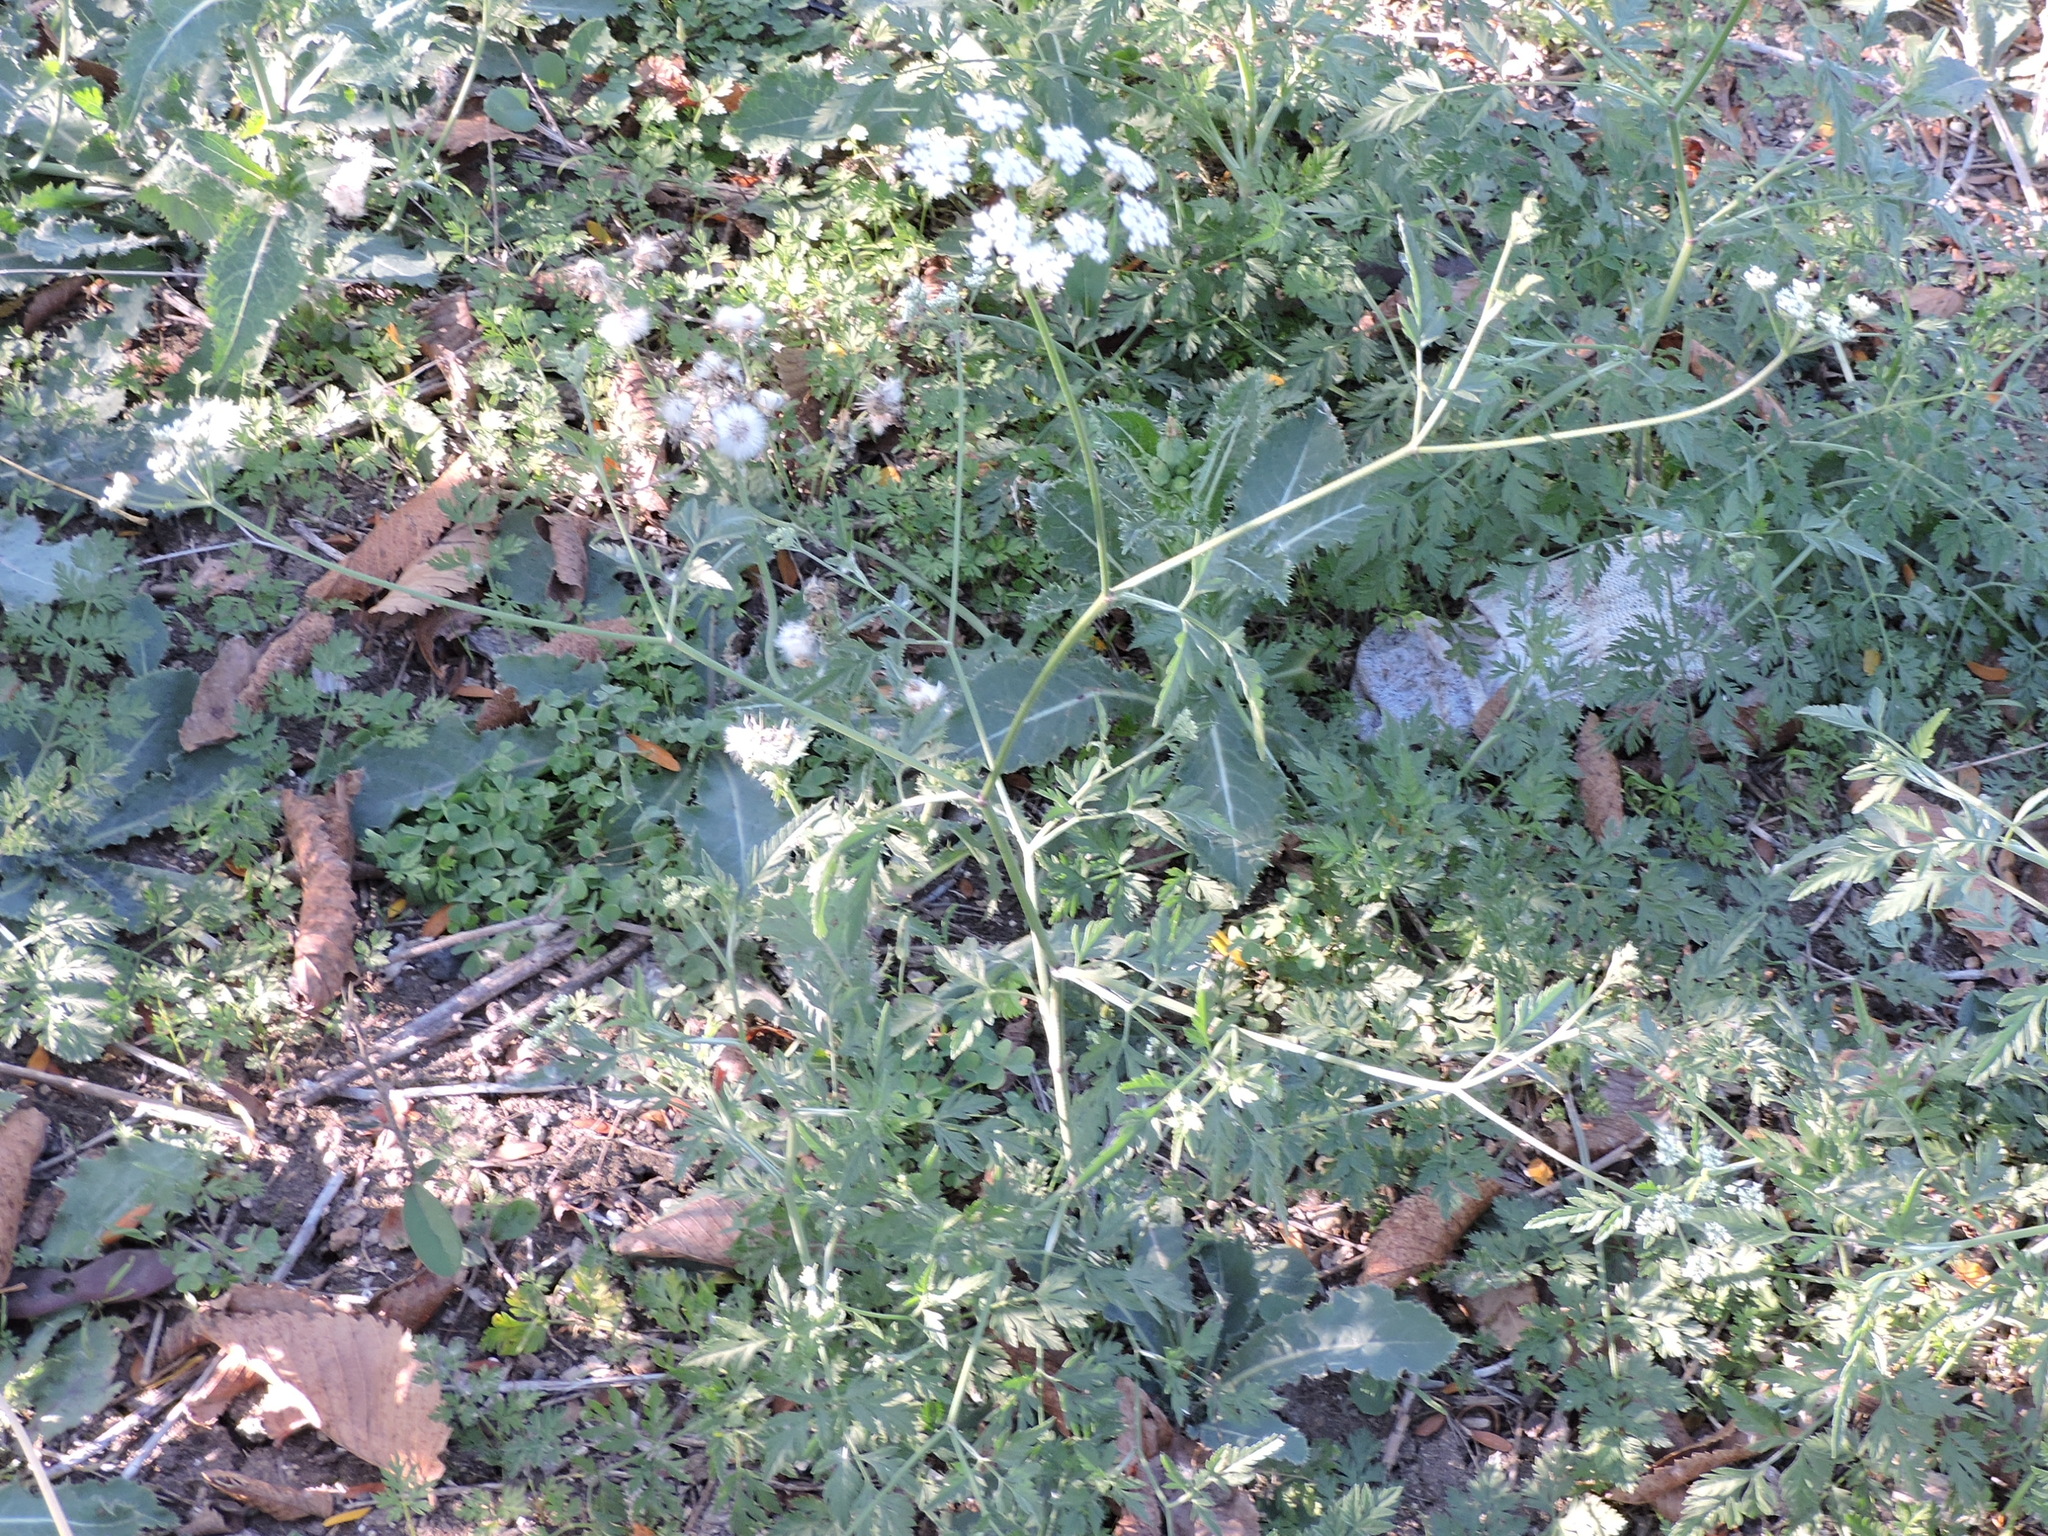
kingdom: Plantae
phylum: Tracheophyta
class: Magnoliopsida
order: Apiales
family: Apiaceae
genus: Torilis
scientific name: Torilis arvensis
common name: Spreading hedge-parsley
